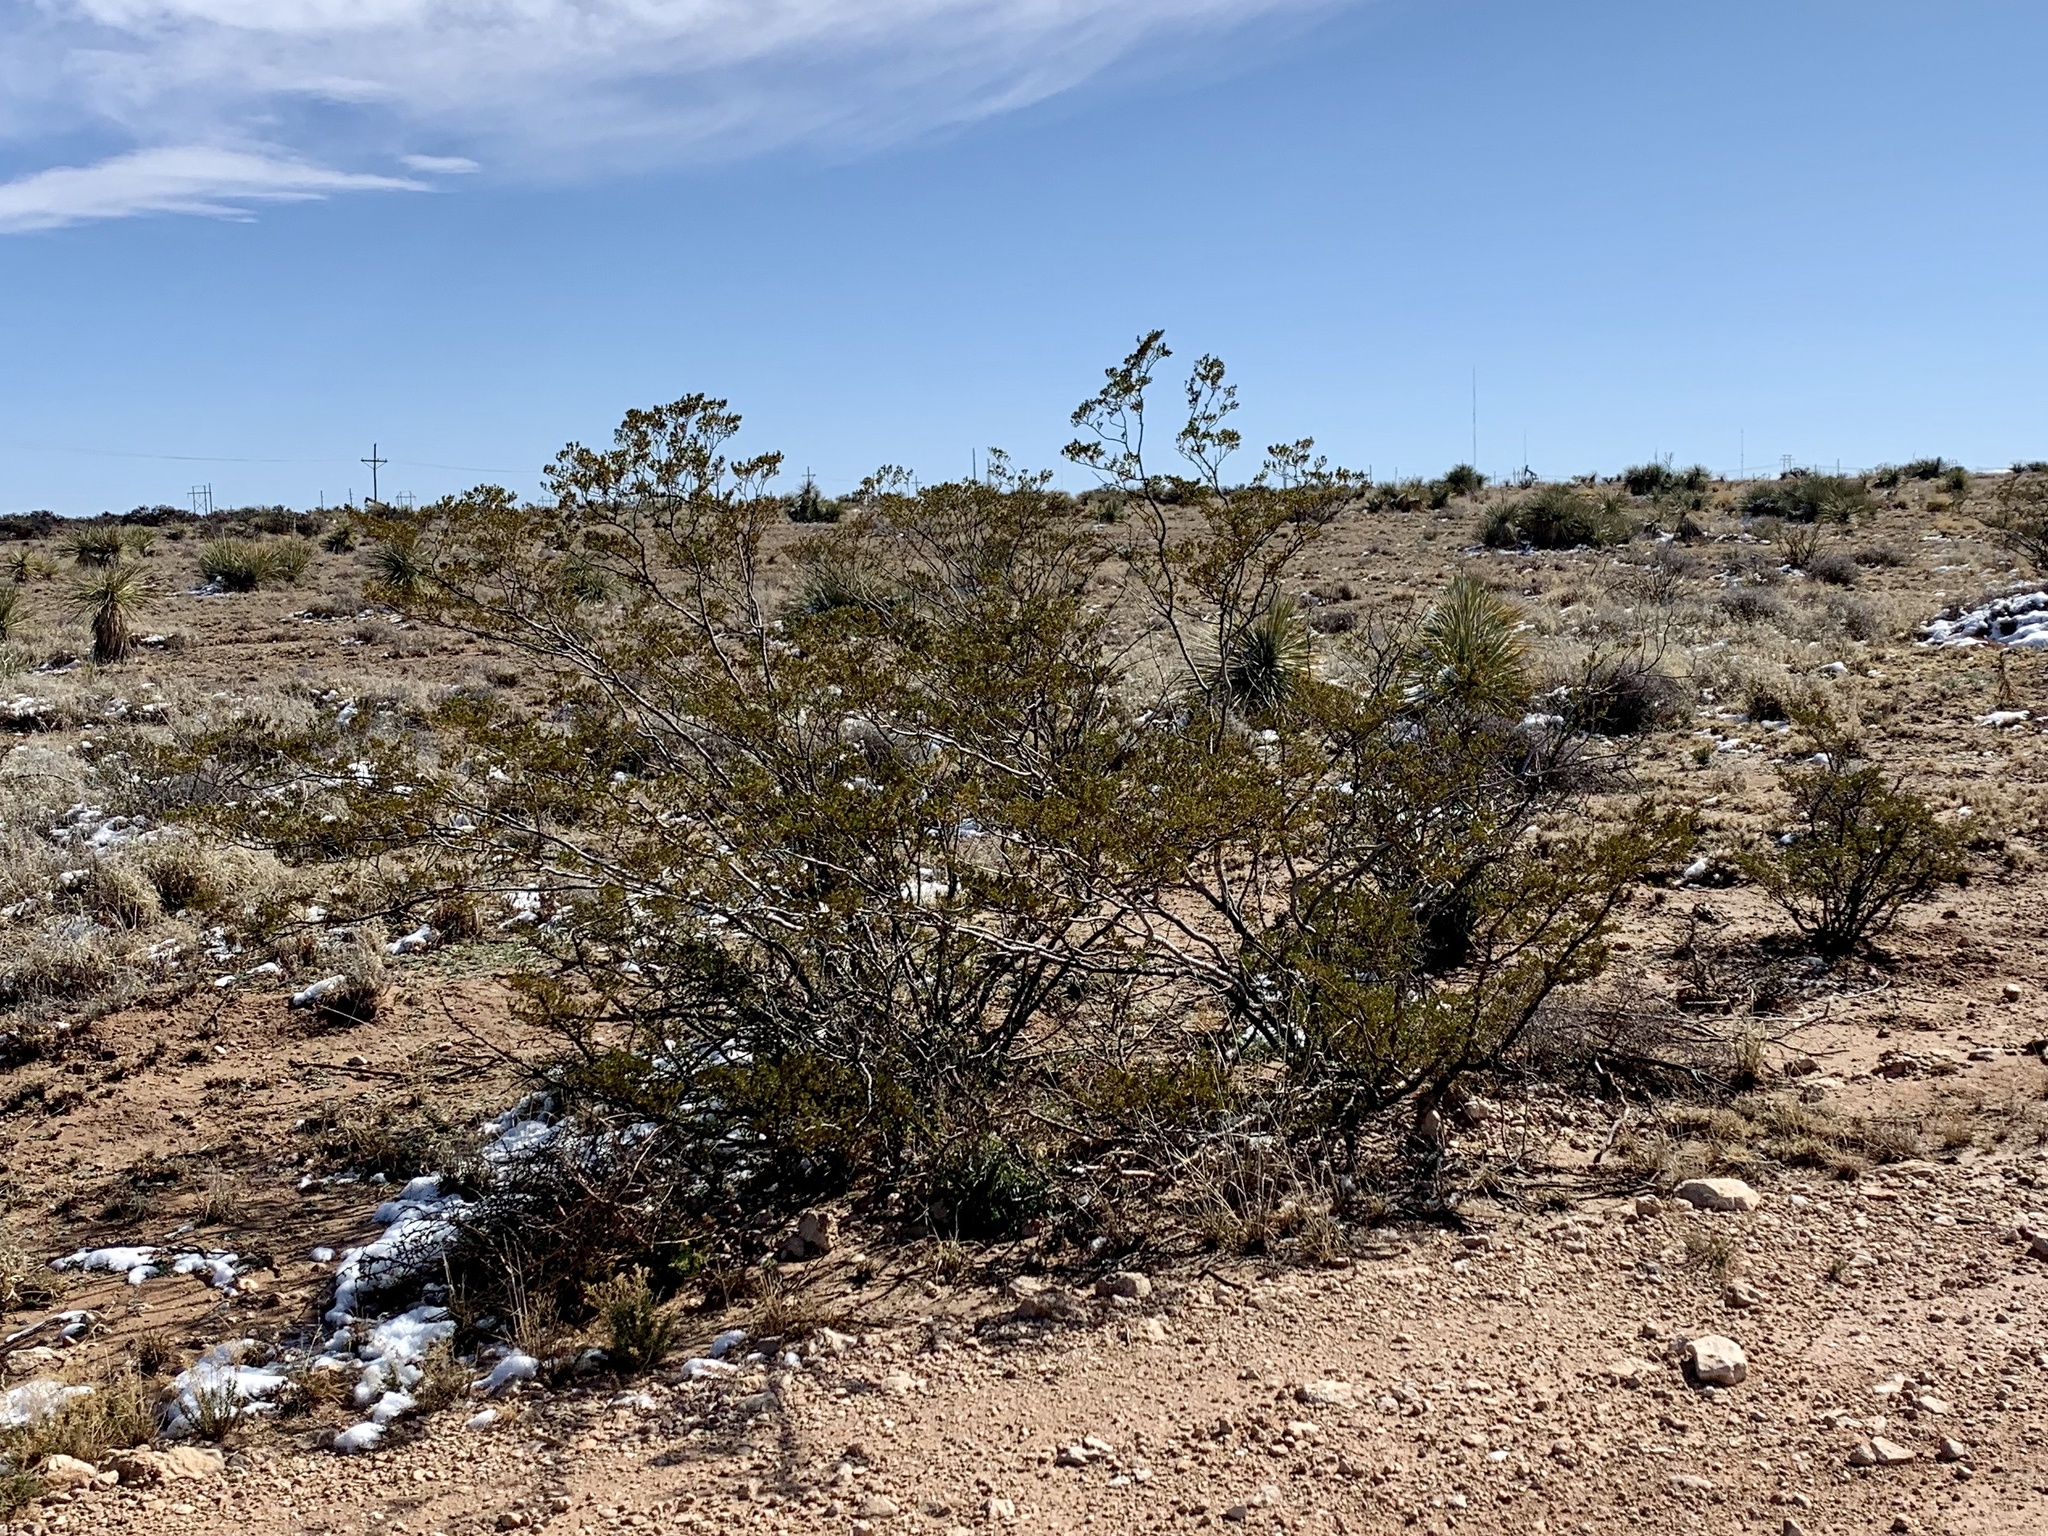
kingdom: Plantae
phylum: Tracheophyta
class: Magnoliopsida
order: Zygophyllales
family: Zygophyllaceae
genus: Larrea
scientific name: Larrea tridentata
